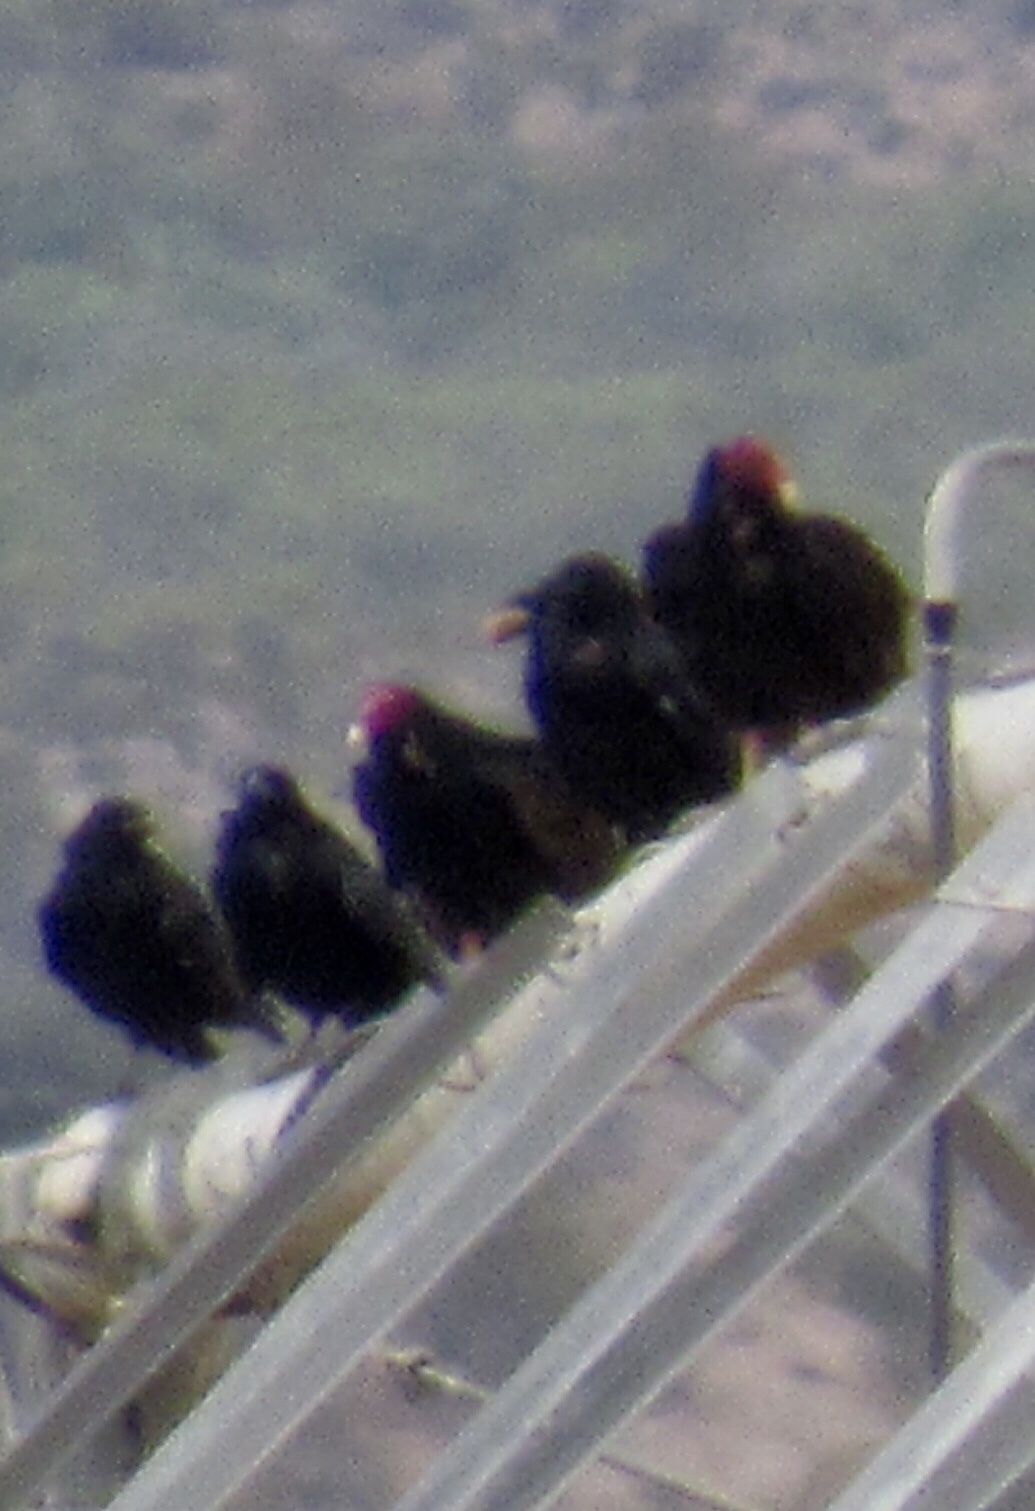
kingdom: Animalia
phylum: Chordata
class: Aves
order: Accipitriformes
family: Cathartidae
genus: Cathartes
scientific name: Cathartes aura
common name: Turkey vulture
